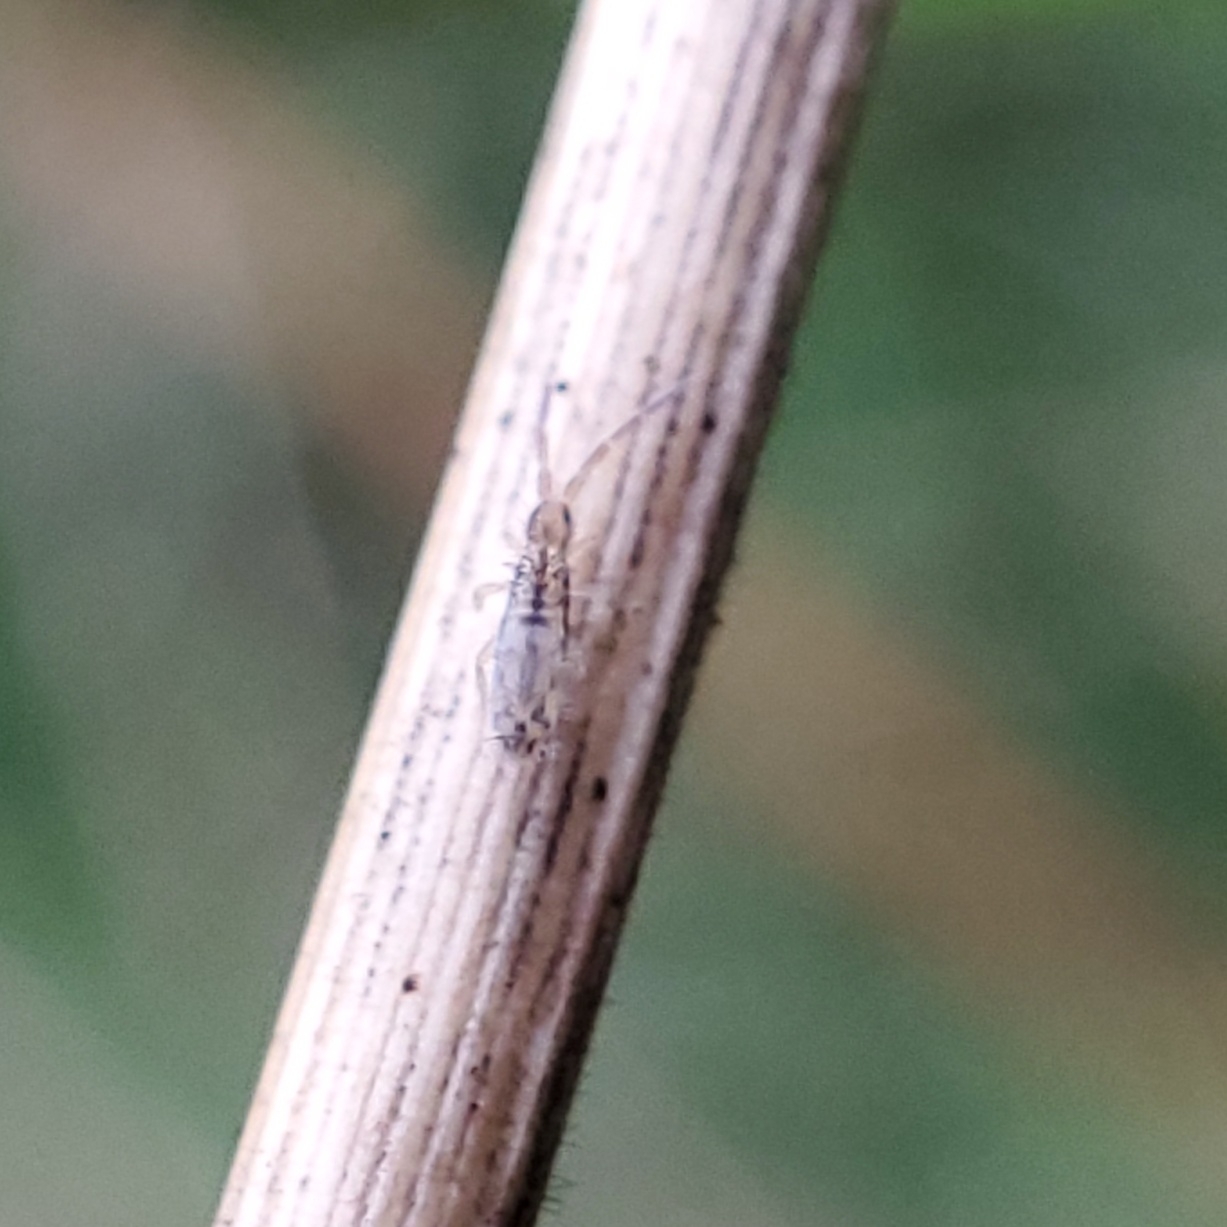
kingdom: Animalia
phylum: Arthropoda
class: Collembola
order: Entomobryomorpha
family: Entomobryidae
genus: Homidia
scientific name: Homidia socia
